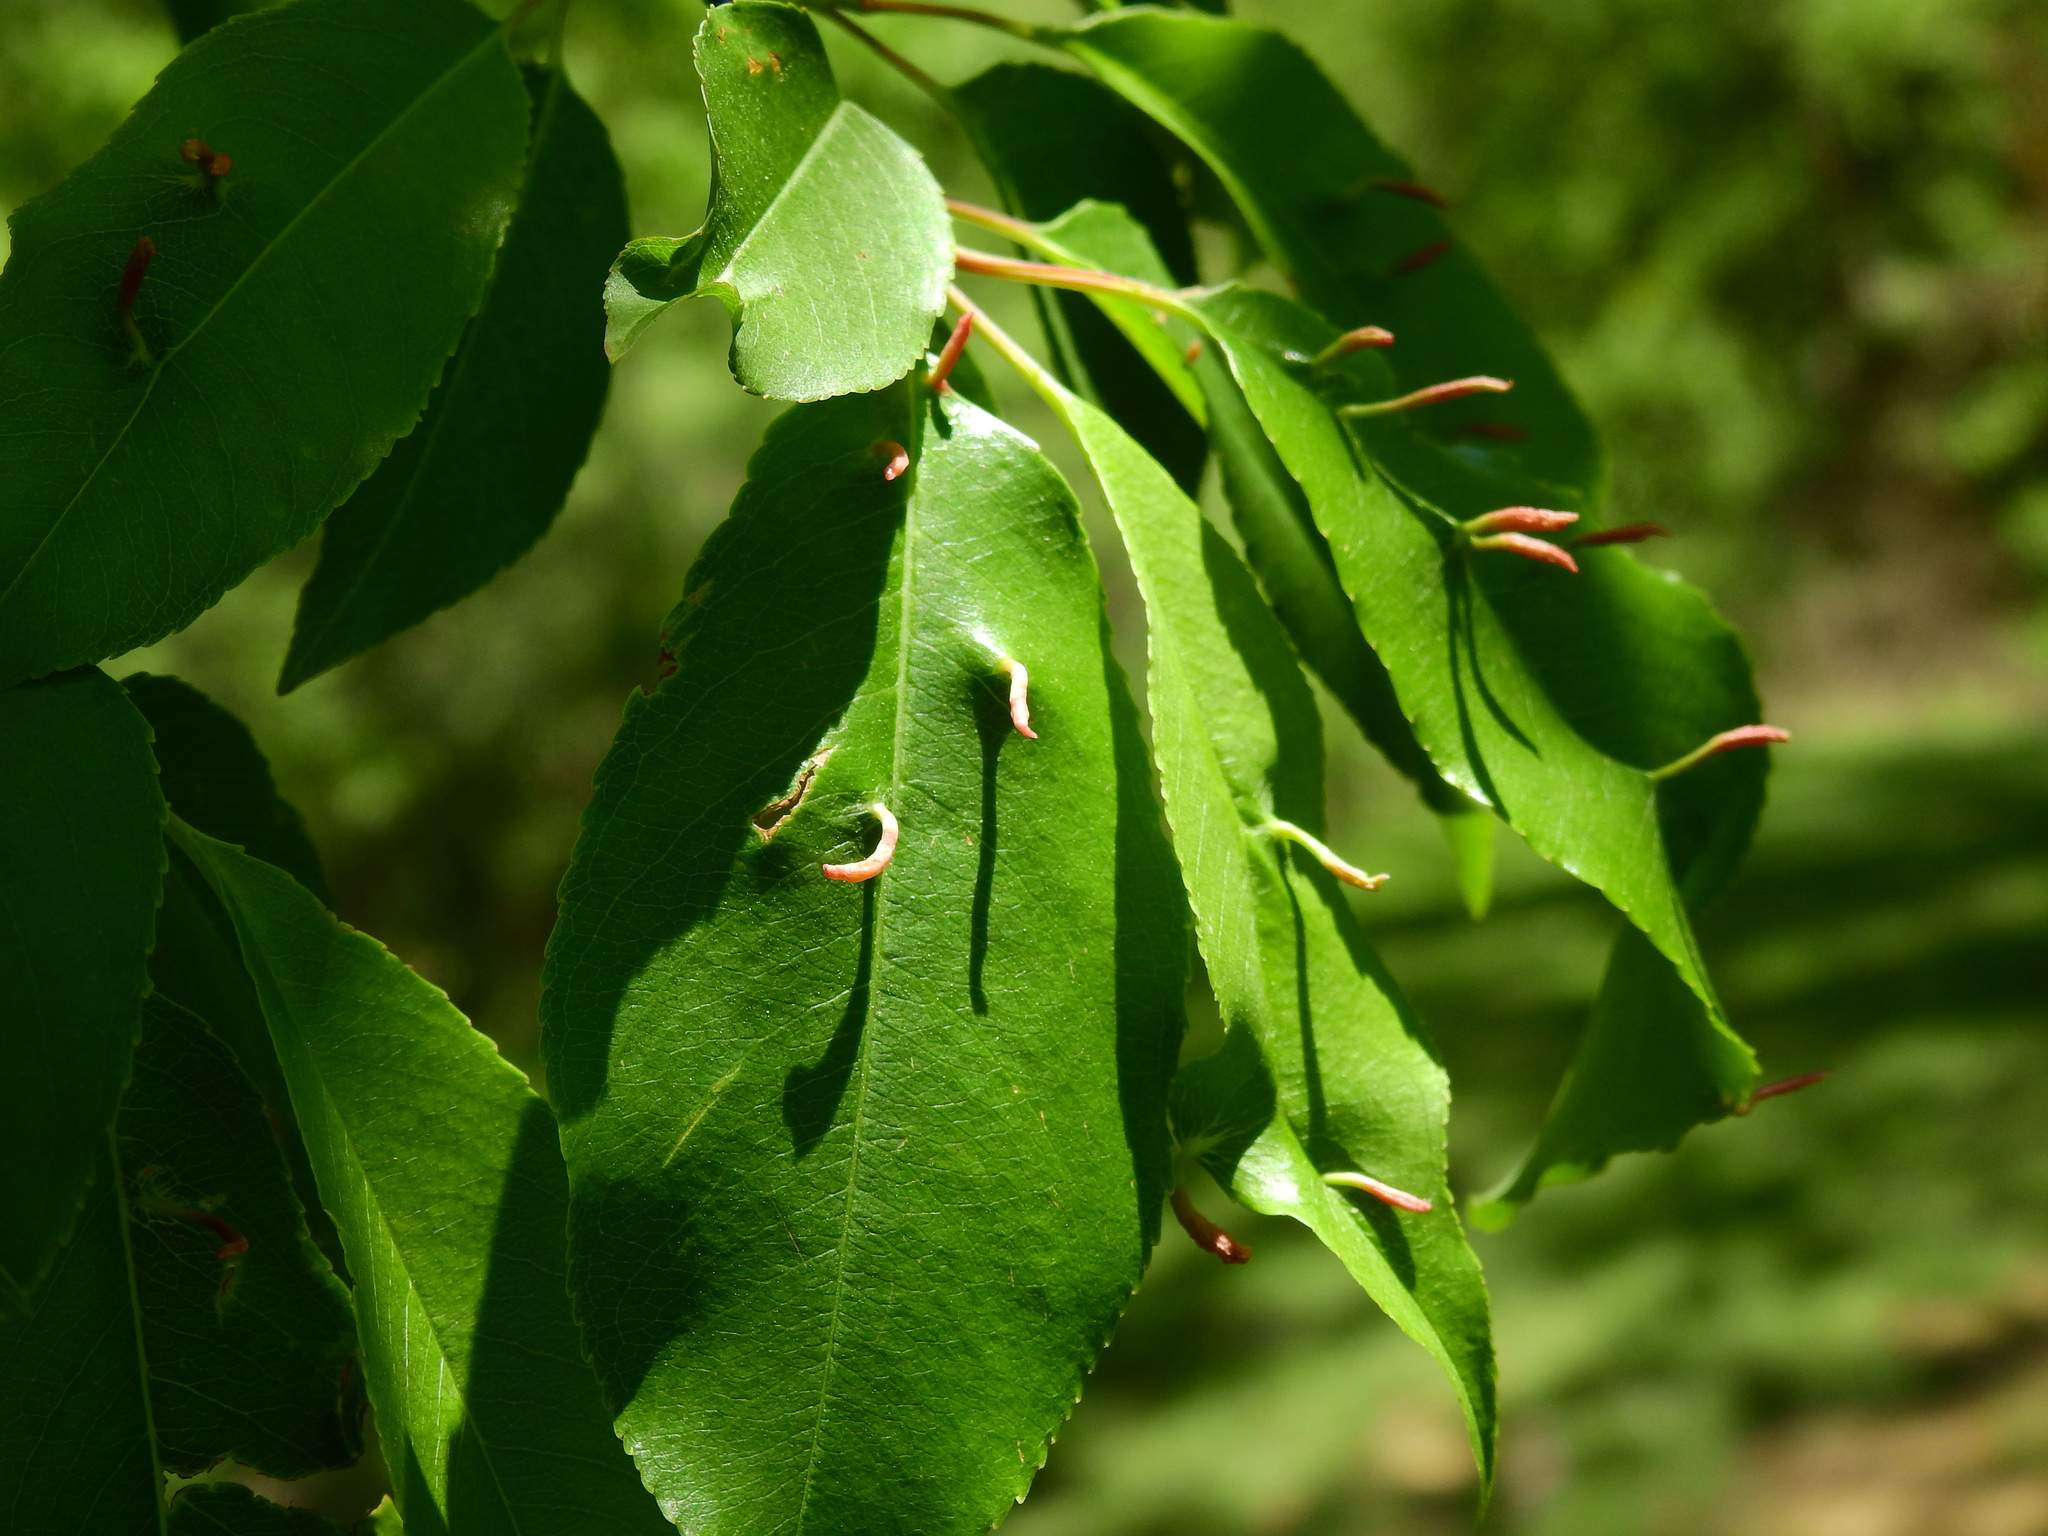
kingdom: Animalia
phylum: Arthropoda
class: Arachnida
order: Trombidiformes
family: Eriophyidae
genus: Eriophyes
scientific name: Eriophyes
